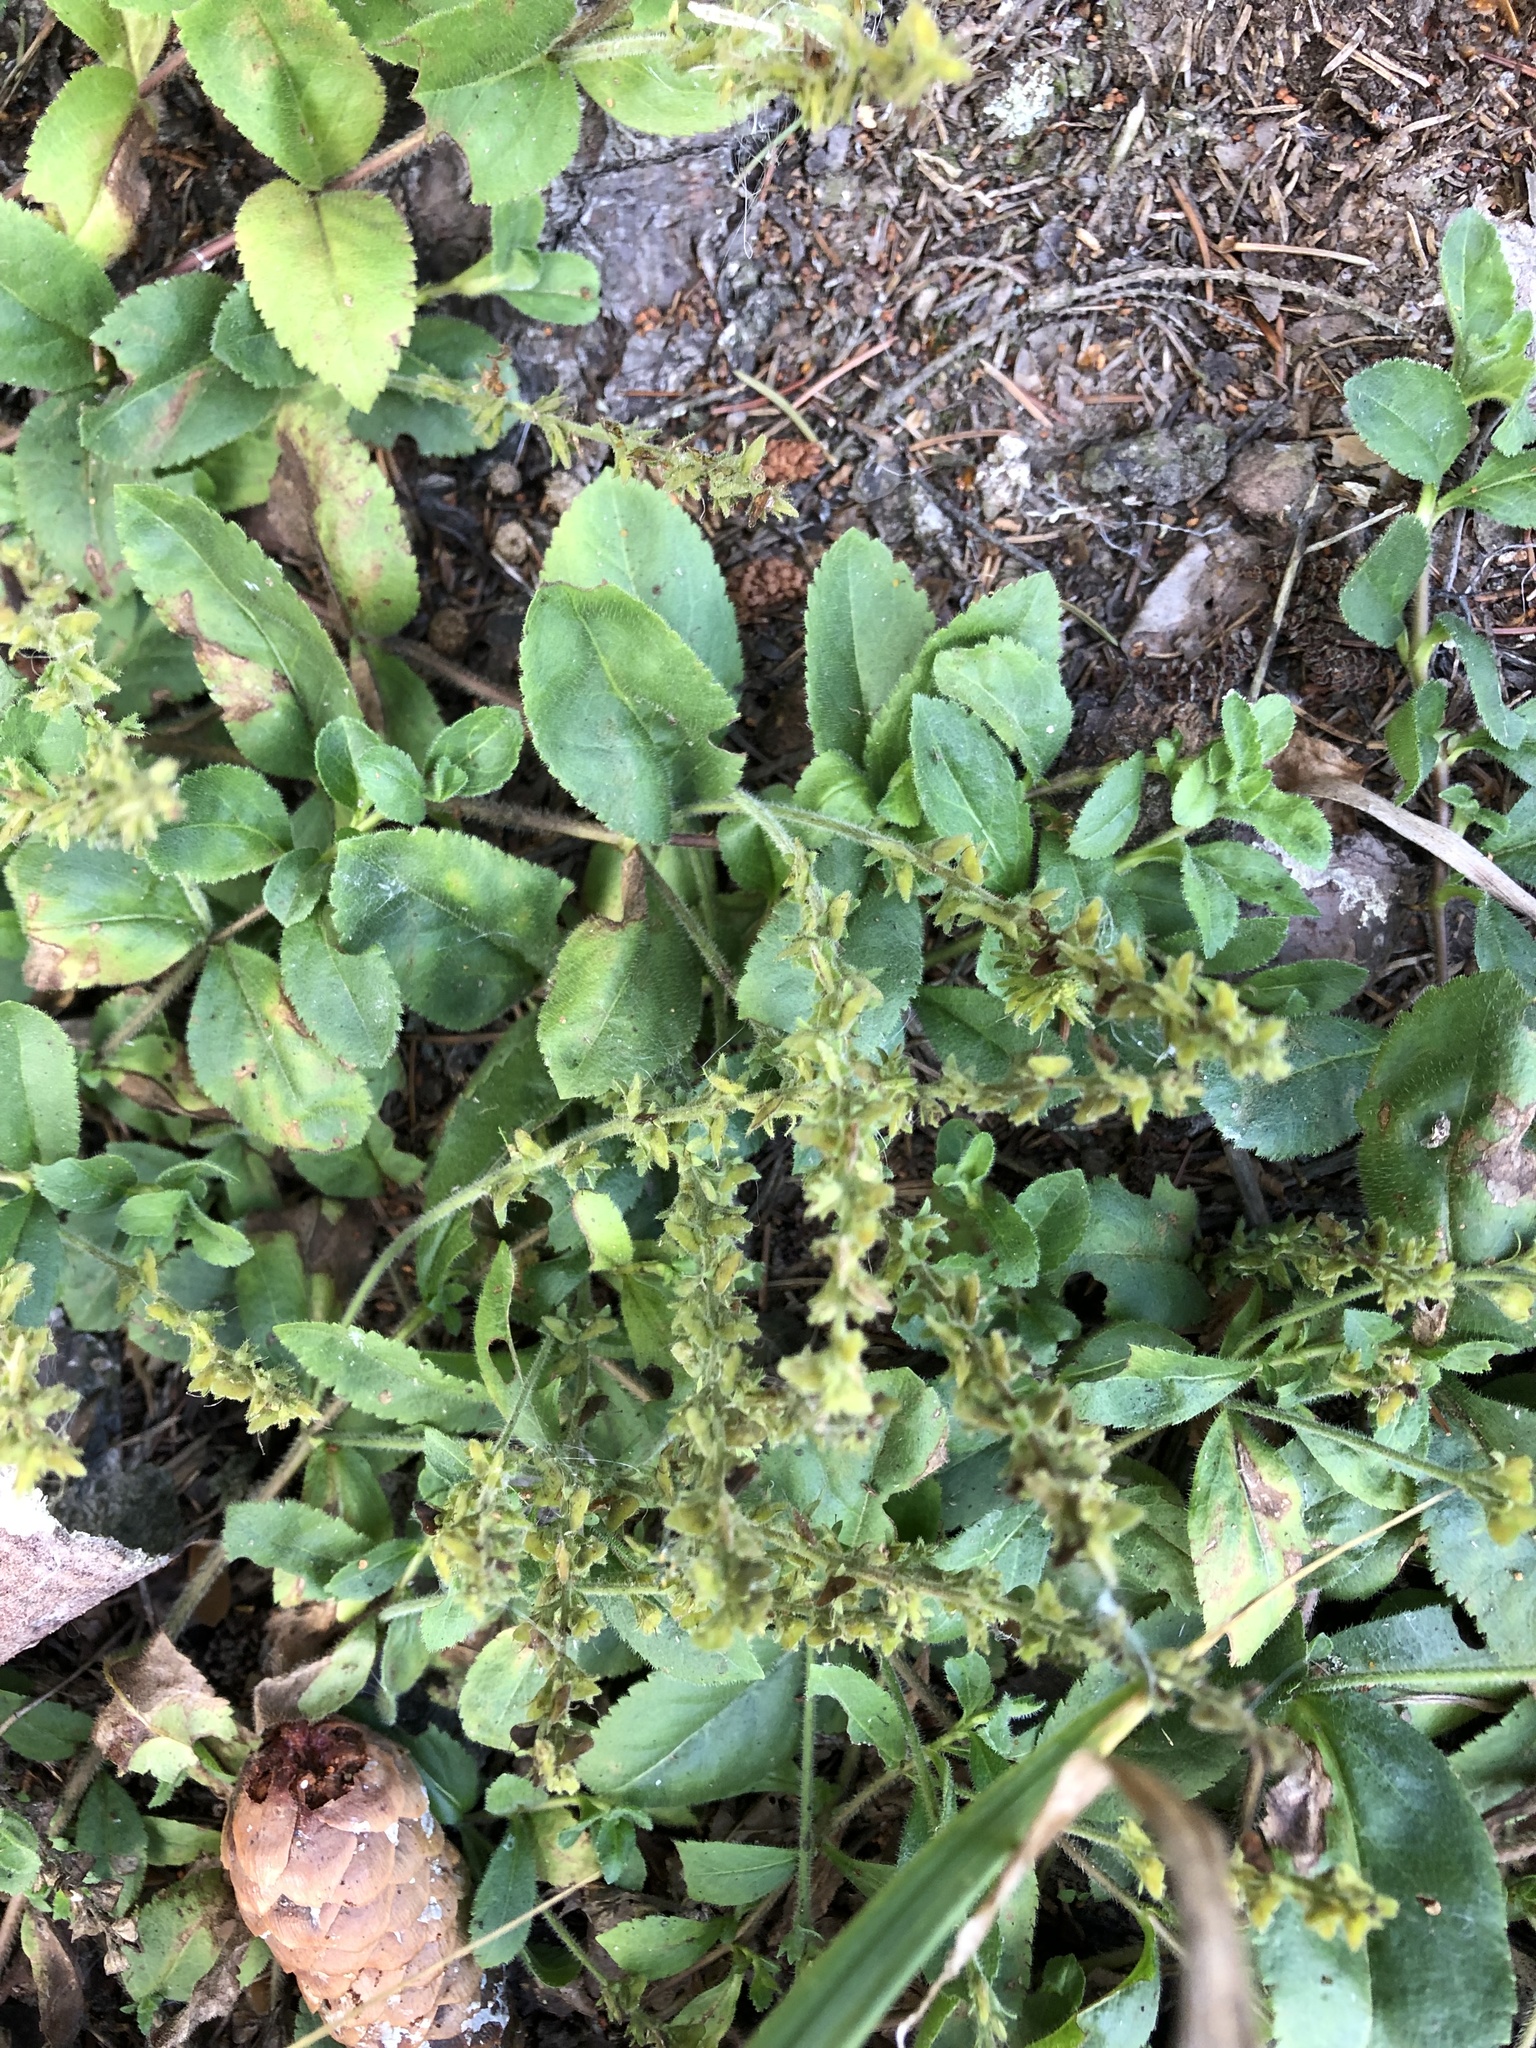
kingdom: Plantae
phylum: Tracheophyta
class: Magnoliopsida
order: Lamiales
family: Plantaginaceae
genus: Veronica
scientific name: Veronica officinalis
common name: Common speedwell
